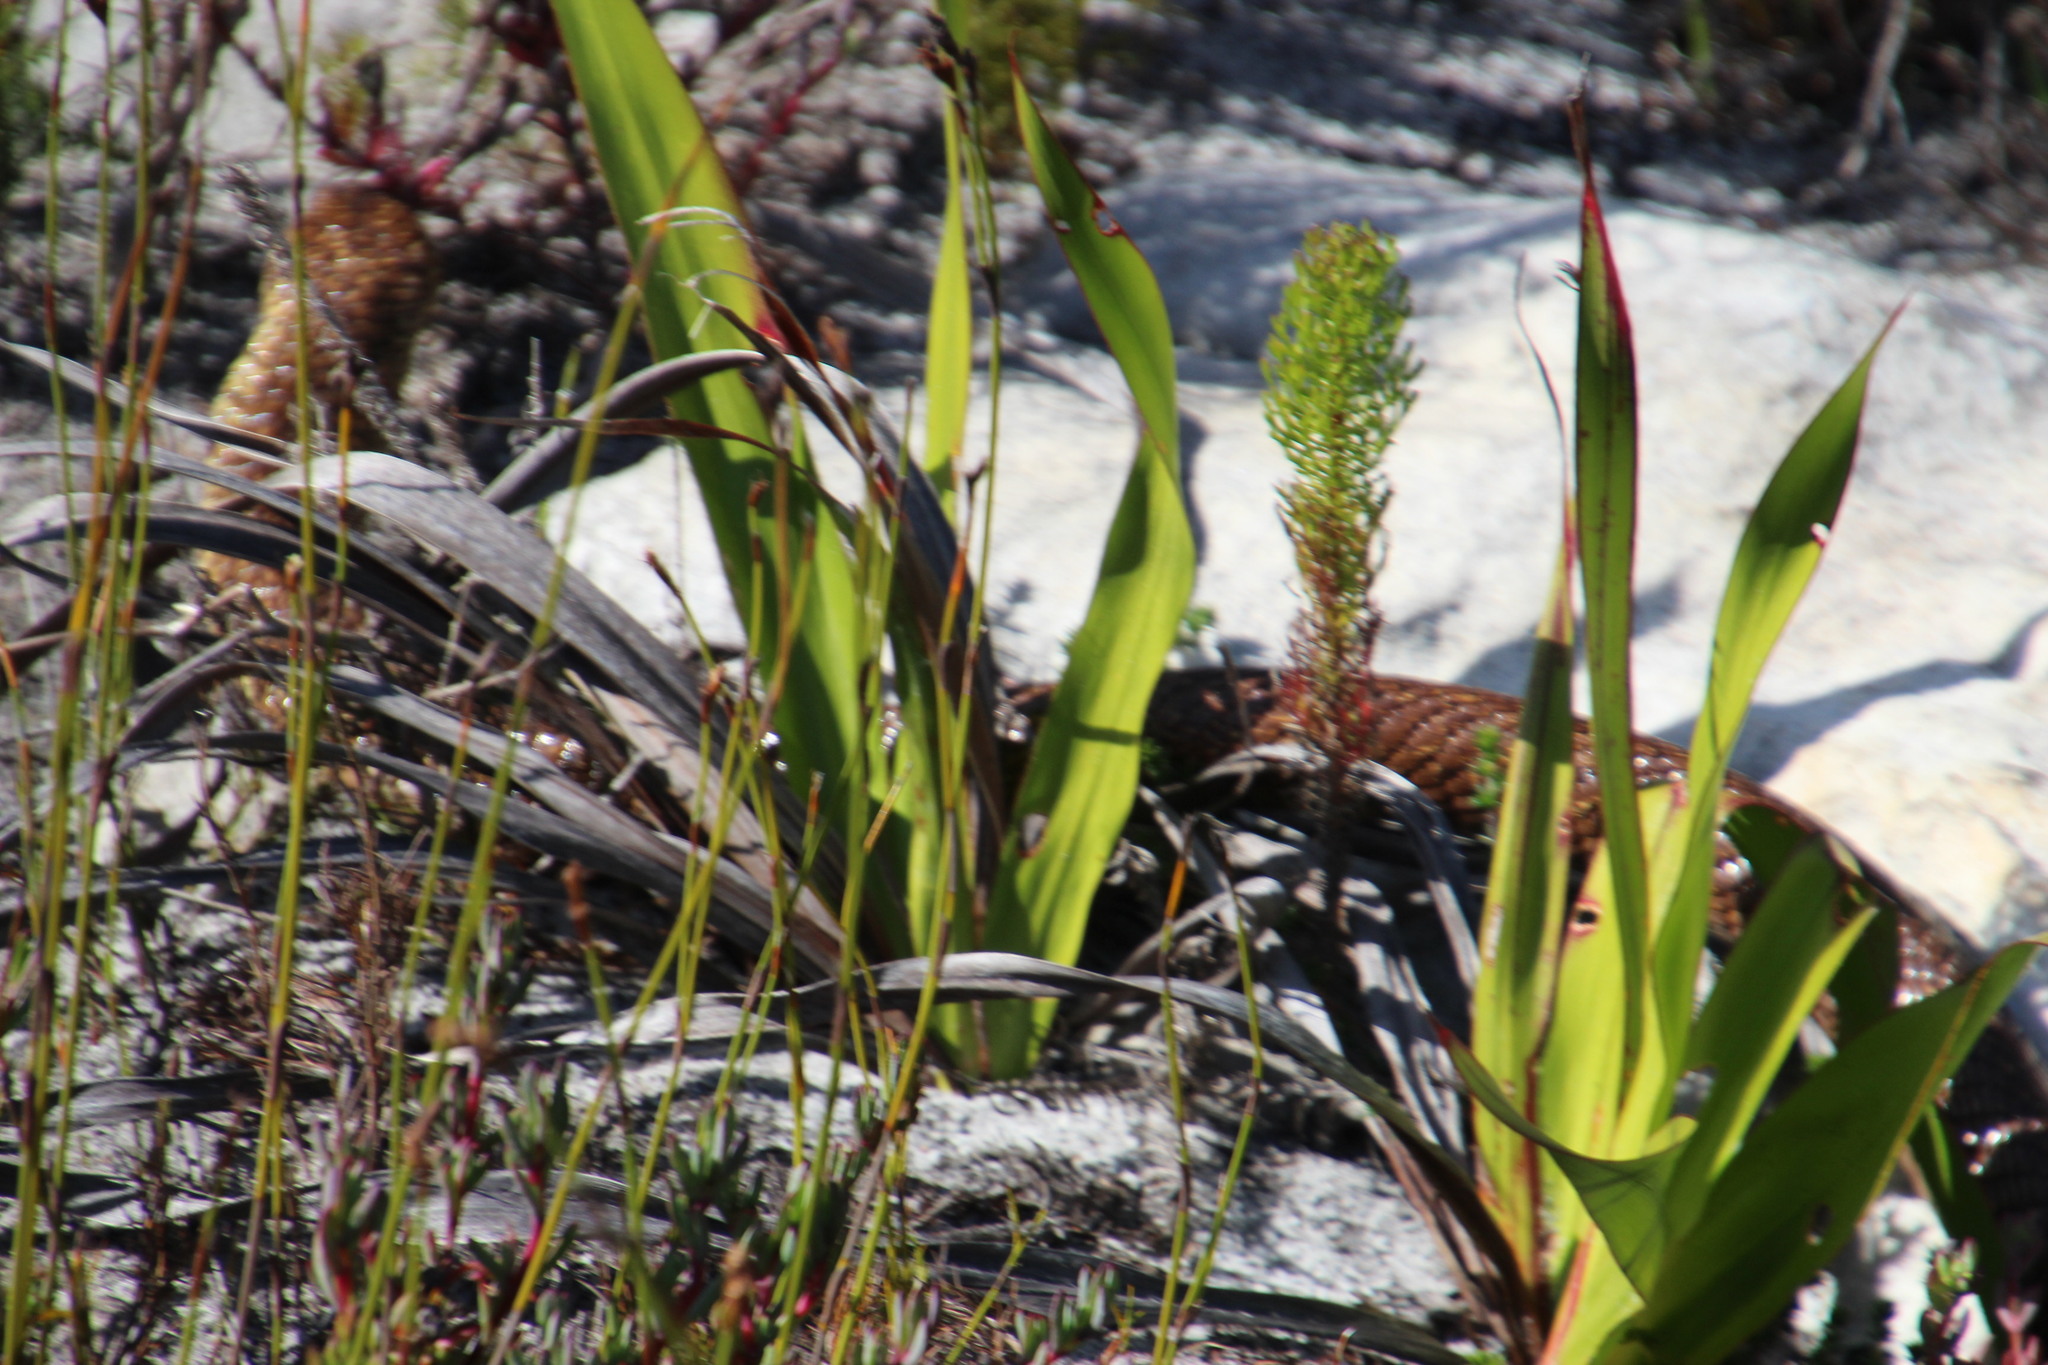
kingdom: Animalia
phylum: Chordata
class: Squamata
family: Elapidae
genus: Naja
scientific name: Naja nivea
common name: Cape cobra
